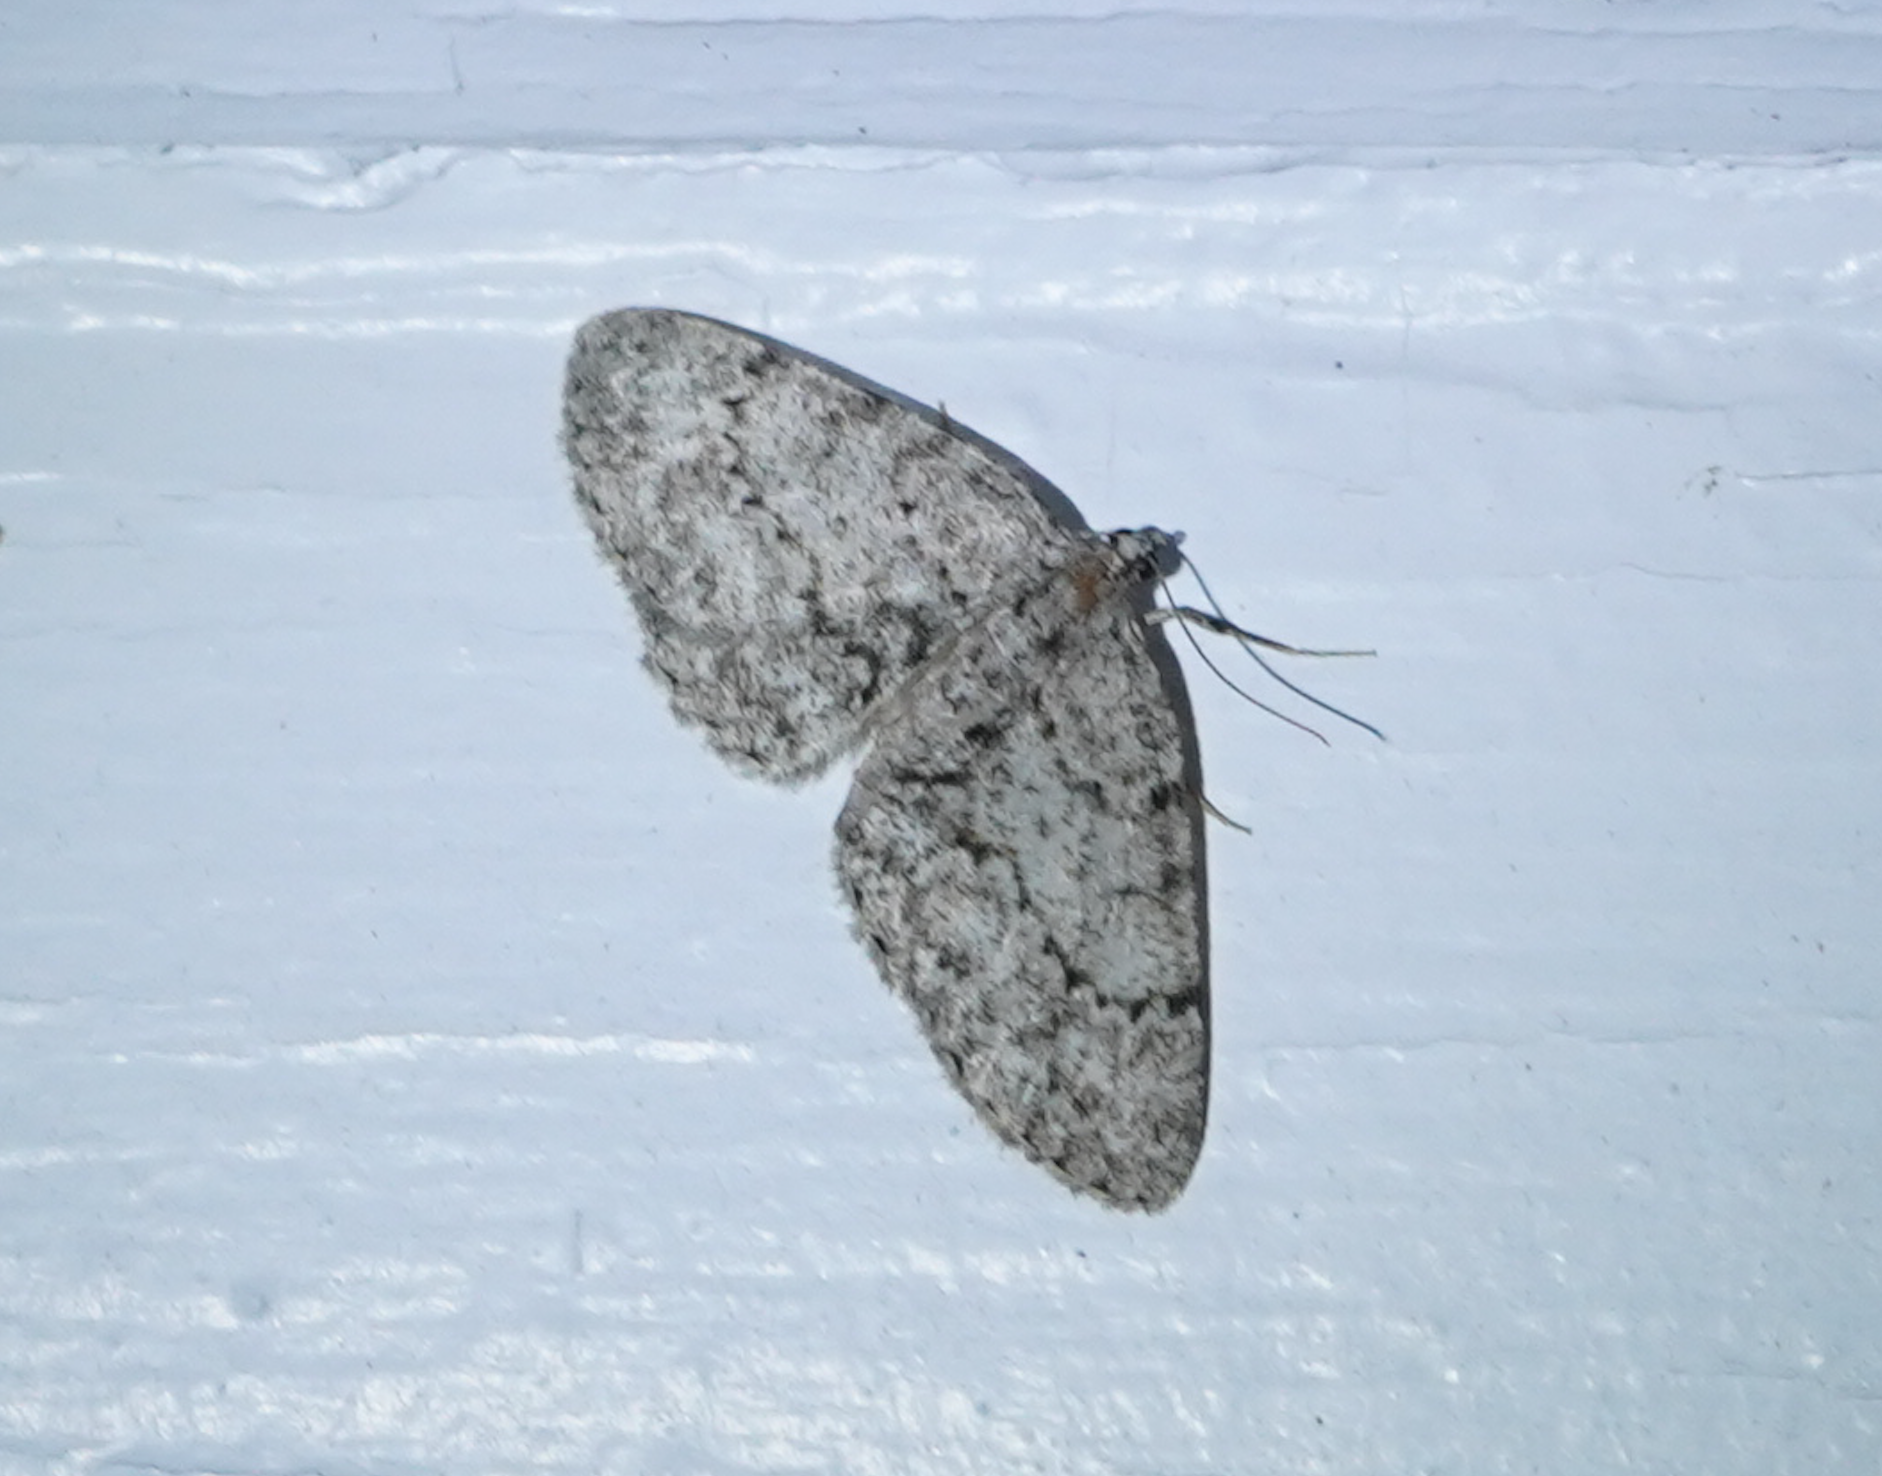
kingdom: Animalia
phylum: Arthropoda
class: Insecta
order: Lepidoptera
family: Geometridae
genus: Protoboarmia
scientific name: Protoboarmia porcelaria
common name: Porcelain gray
